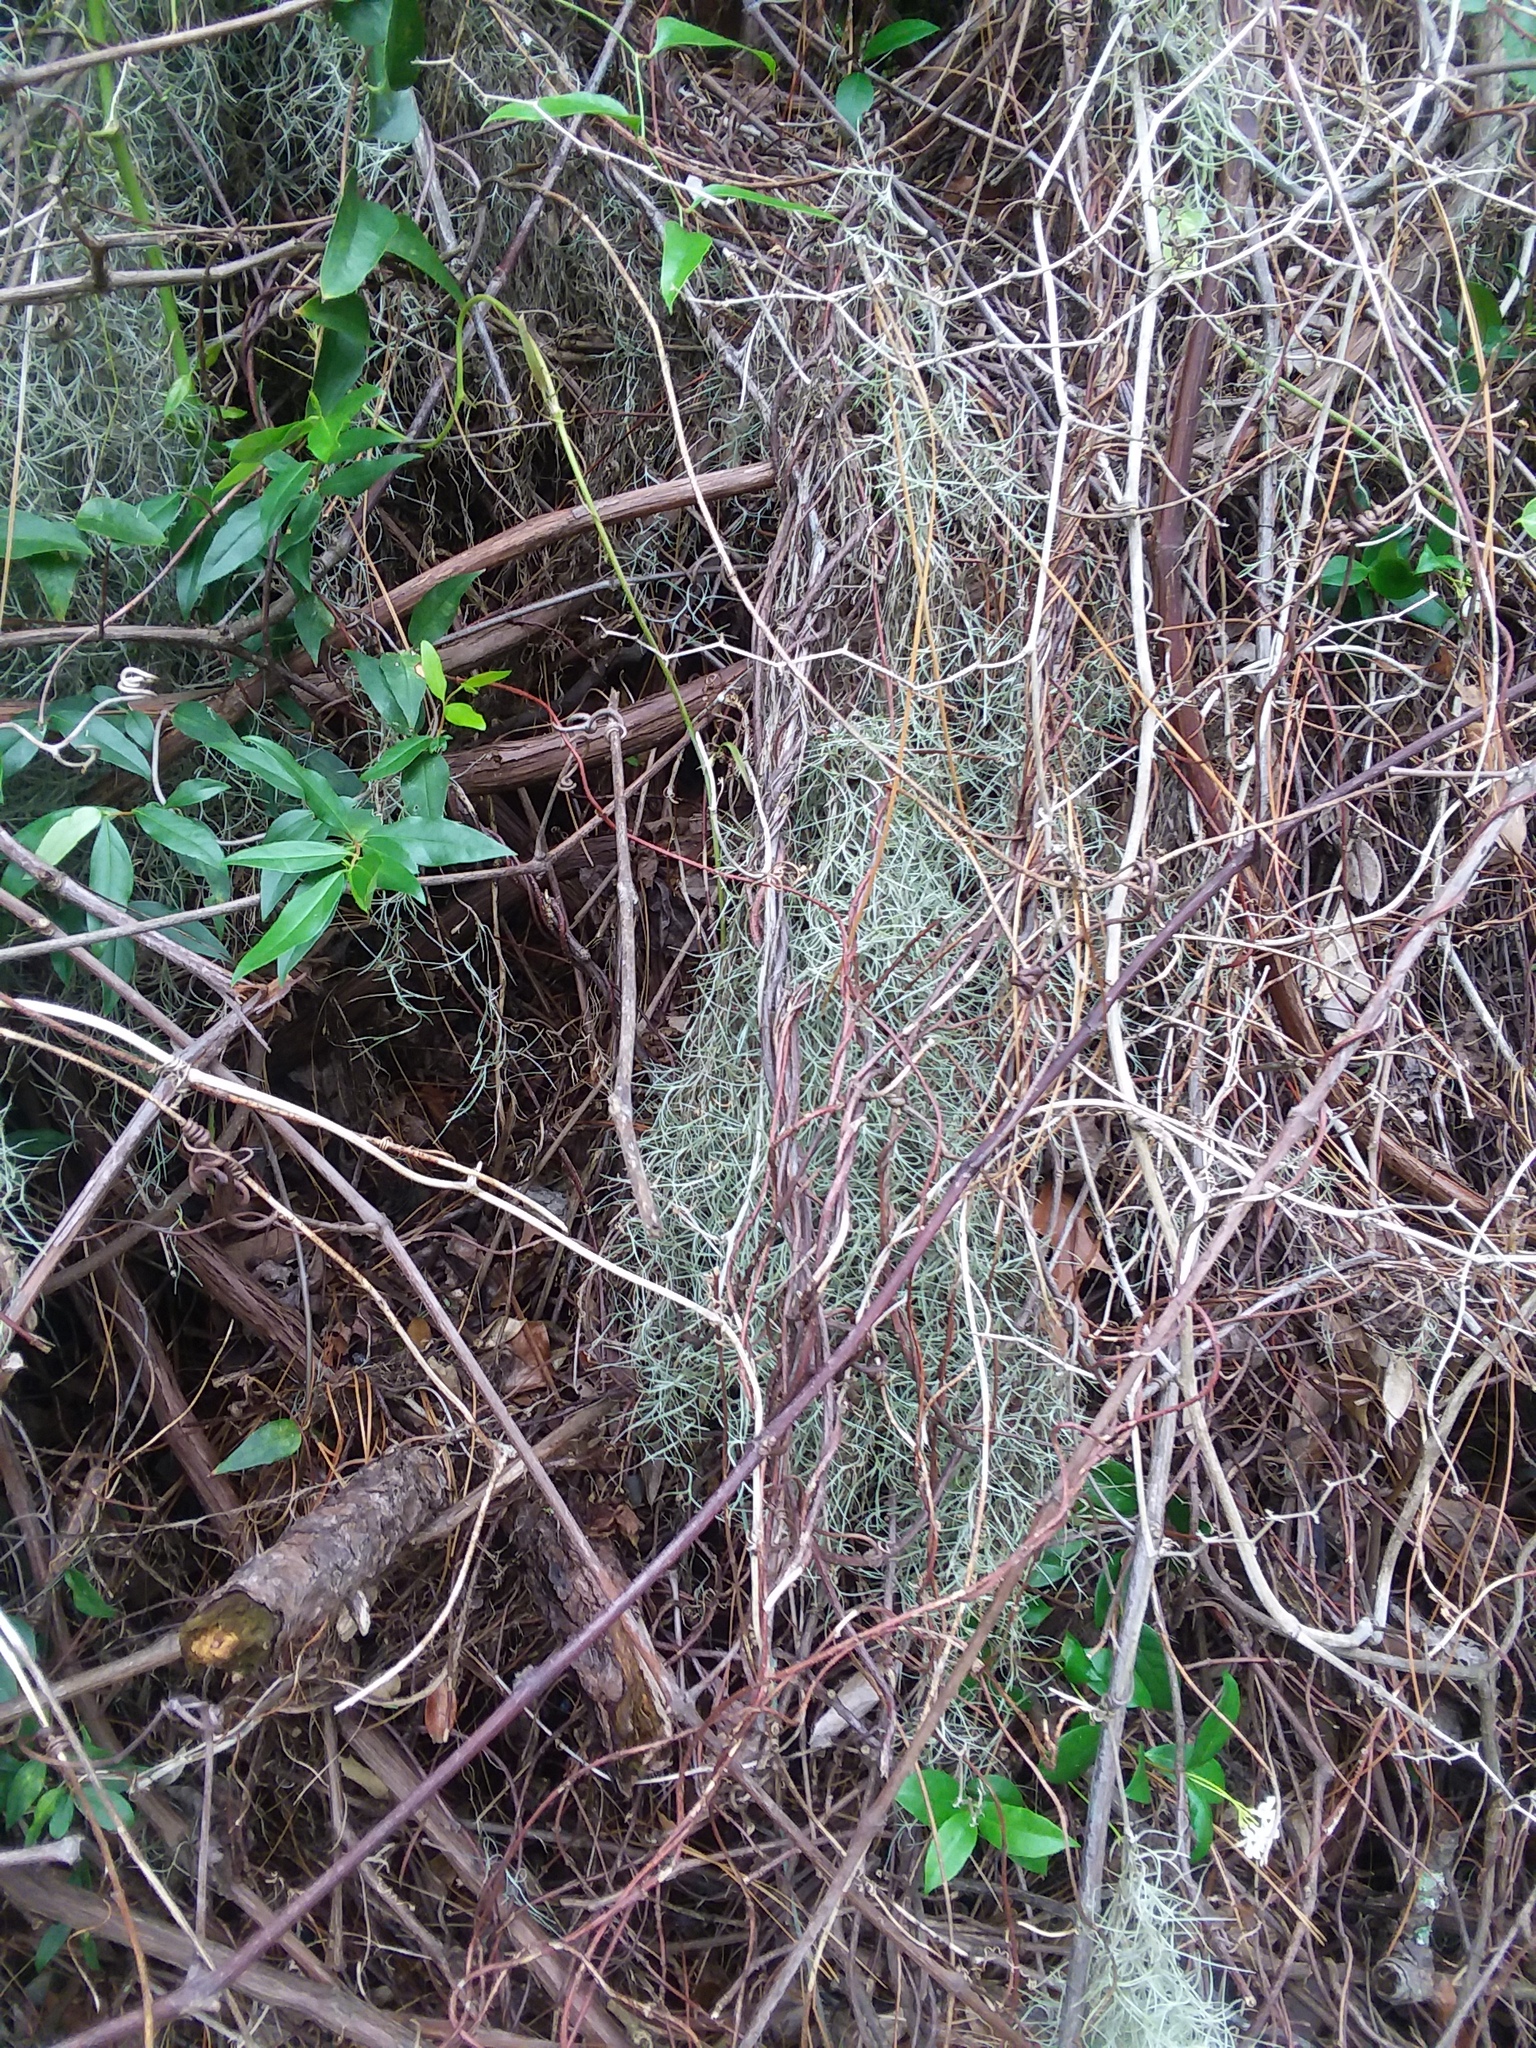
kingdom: Plantae
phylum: Tracheophyta
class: Liliopsida
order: Poales
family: Bromeliaceae
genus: Tillandsia
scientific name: Tillandsia usneoides
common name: Spanish moss
